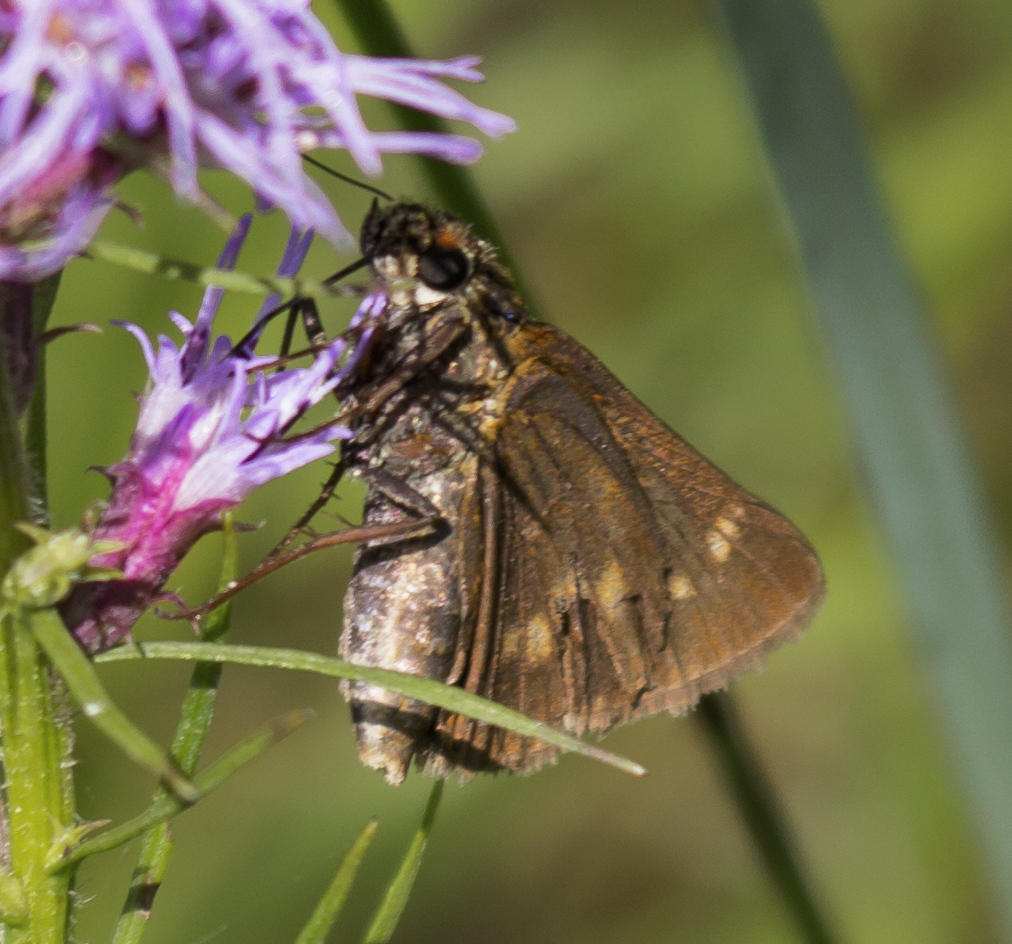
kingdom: Animalia
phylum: Arthropoda
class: Insecta
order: Lepidoptera
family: Hesperiidae
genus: Euphyes
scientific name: Euphyes conspicua
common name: Black dash
